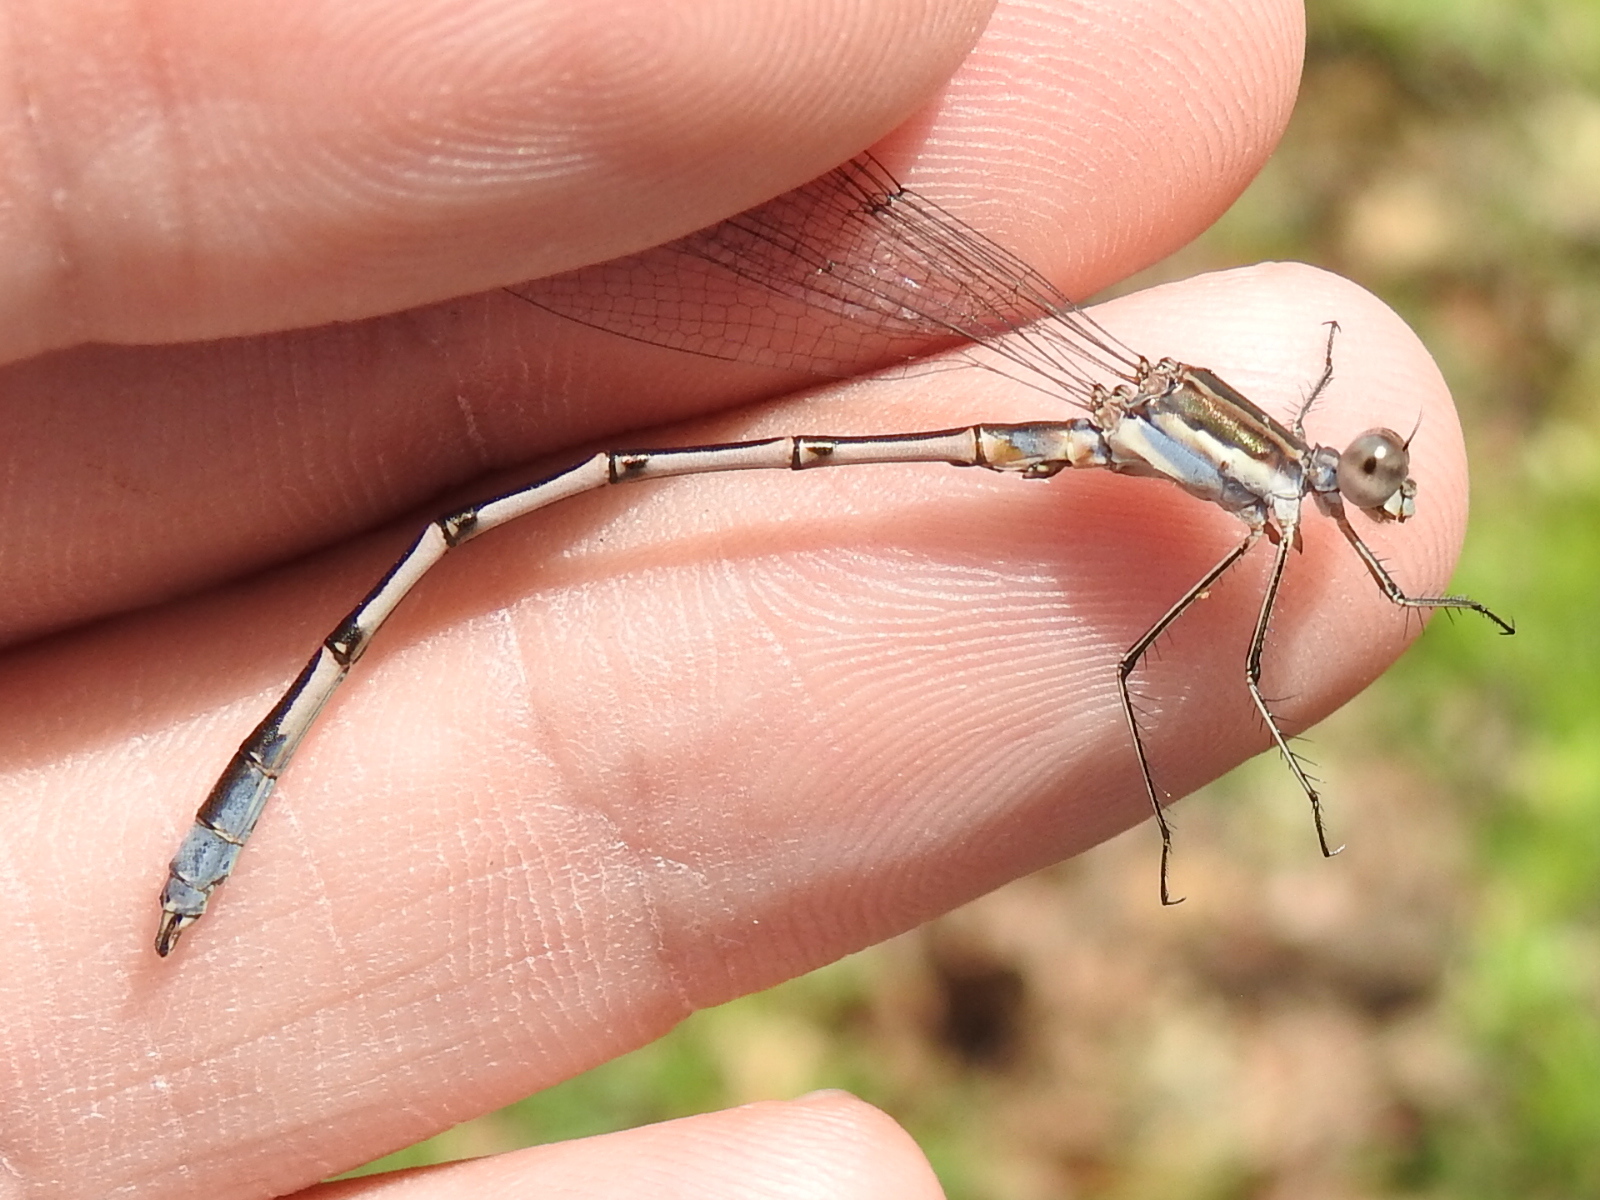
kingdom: Animalia
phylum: Arthropoda
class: Insecta
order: Odonata
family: Lestidae
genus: Lestes
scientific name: Lestes australis
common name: Southern spreadwing
